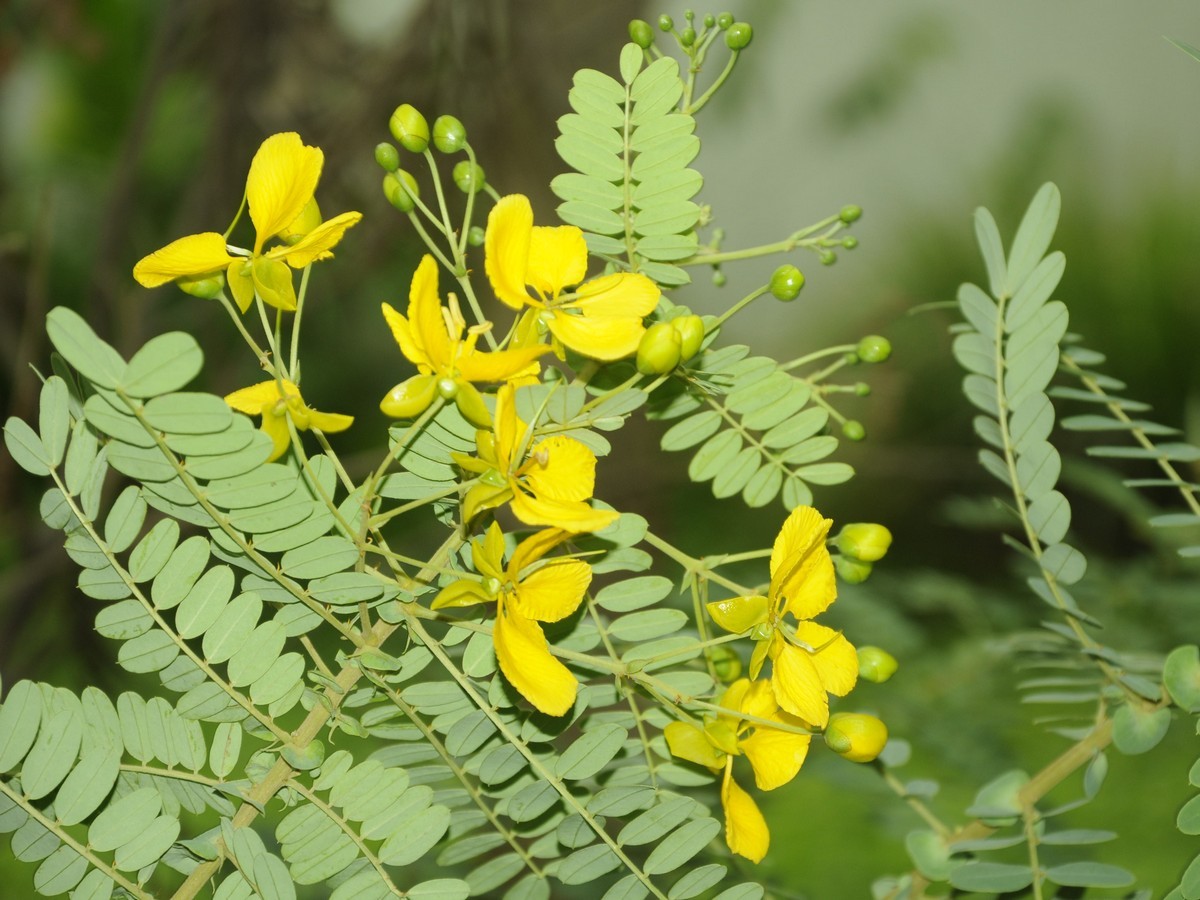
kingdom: Plantae
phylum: Tracheophyta
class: Magnoliopsida
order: Fabales
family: Fabaceae
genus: Senna
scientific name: Senna auriculata
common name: Tanner's cassia
